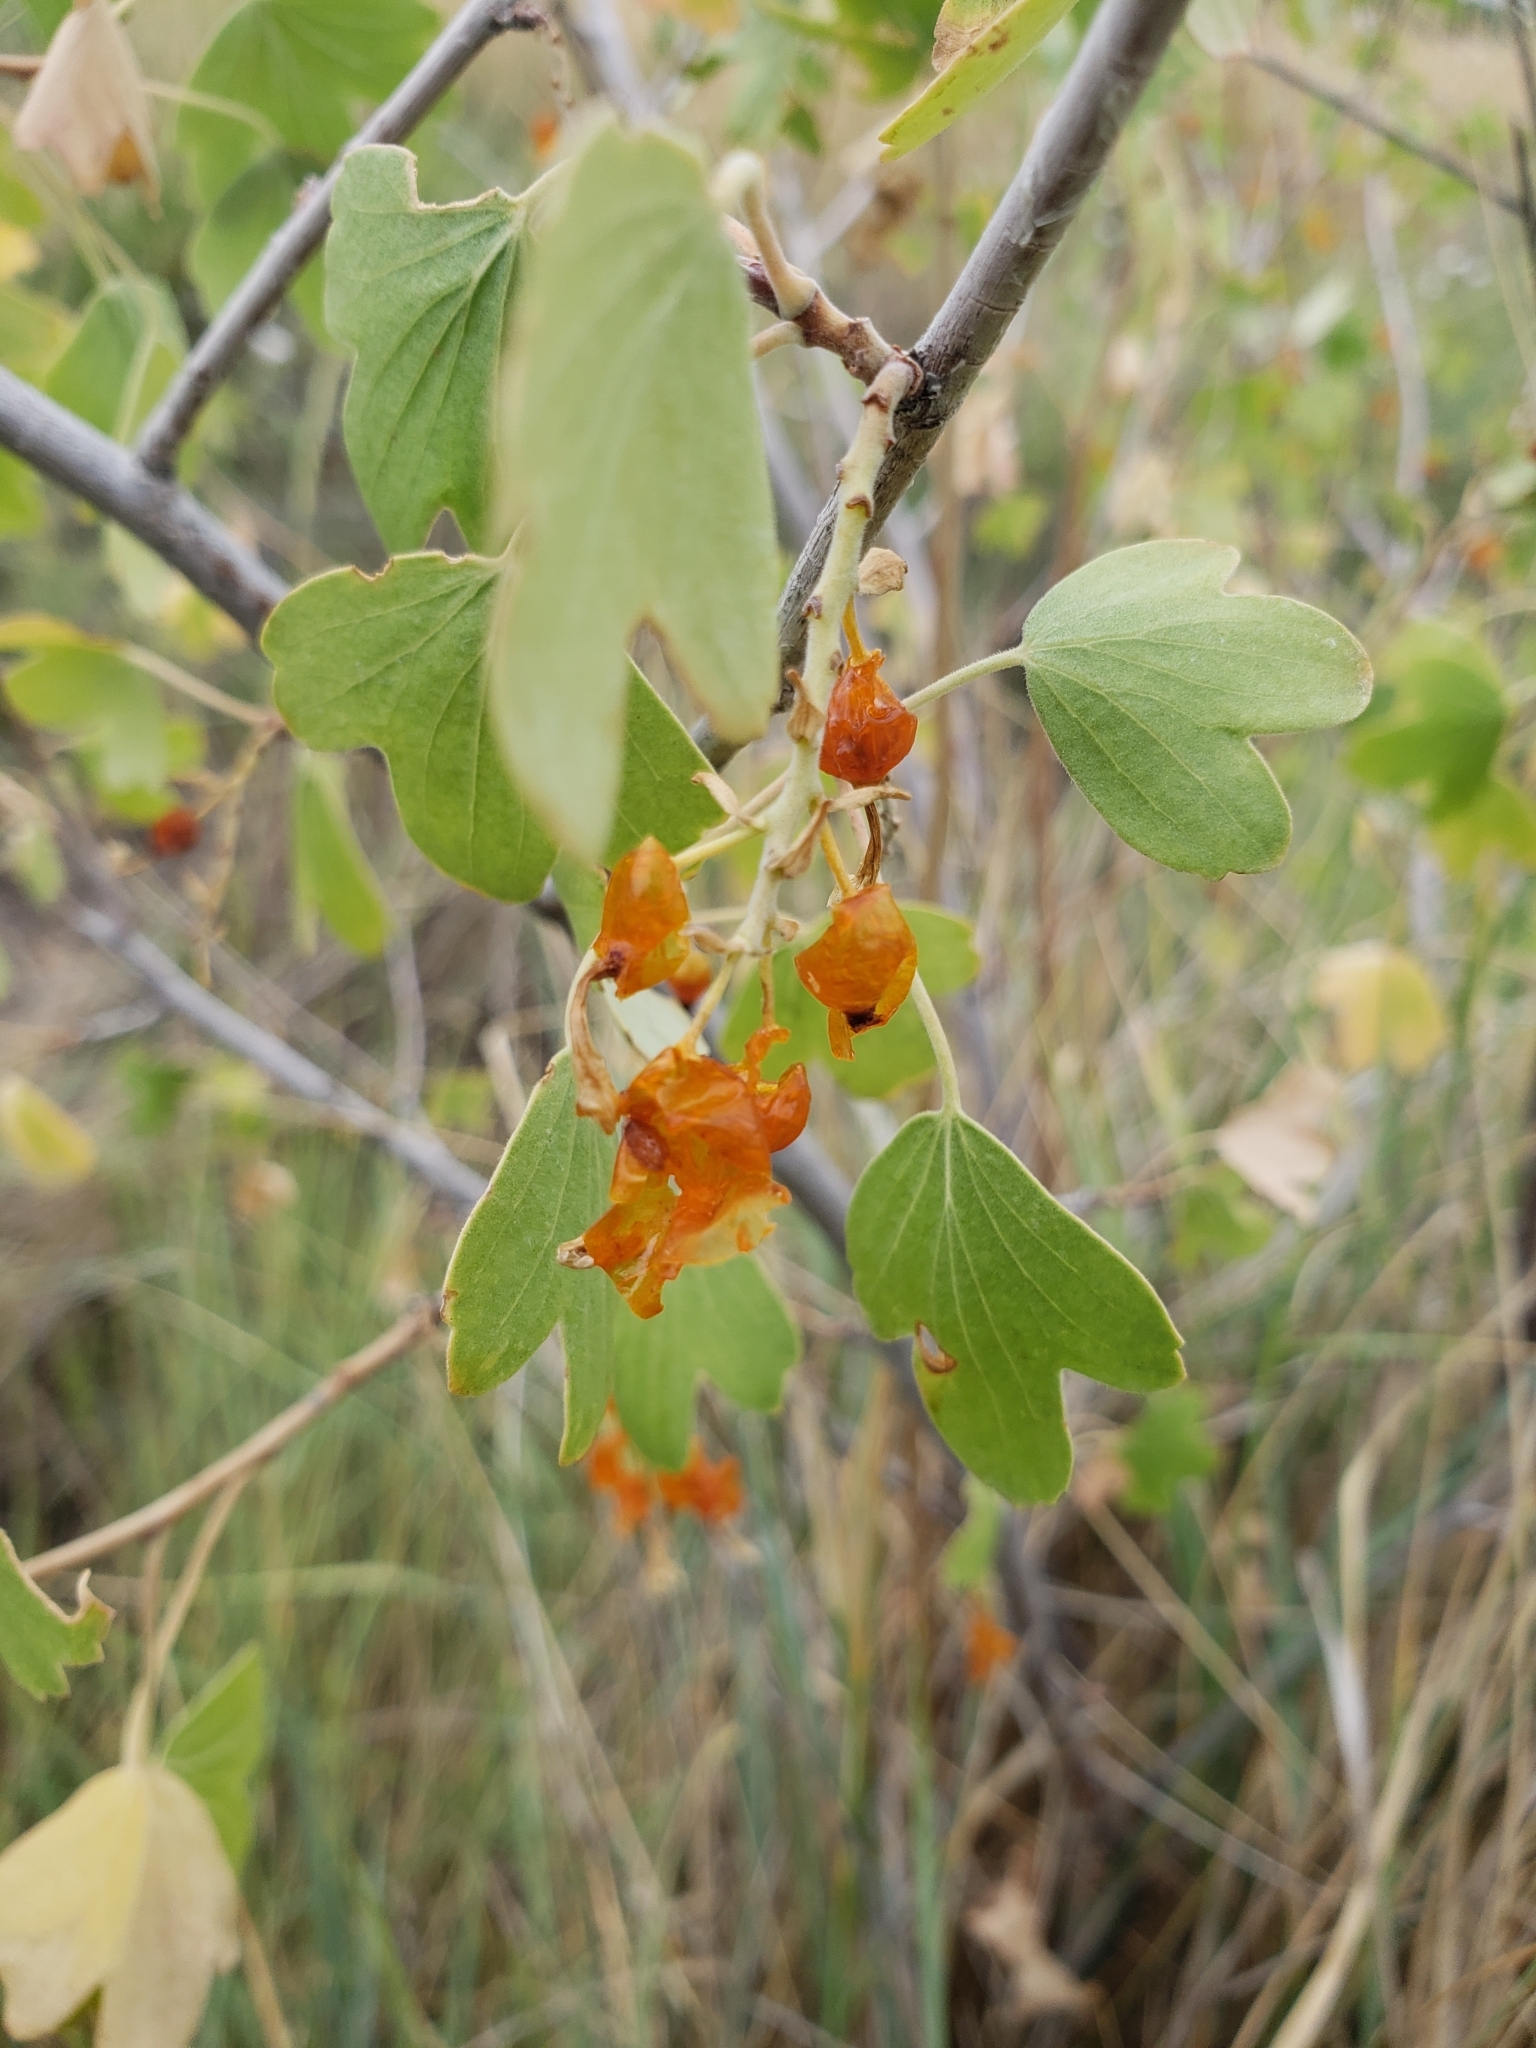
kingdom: Plantae
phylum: Tracheophyta
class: Magnoliopsida
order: Saxifragales
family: Grossulariaceae
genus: Ribes
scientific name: Ribes aureum
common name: Golden currant
